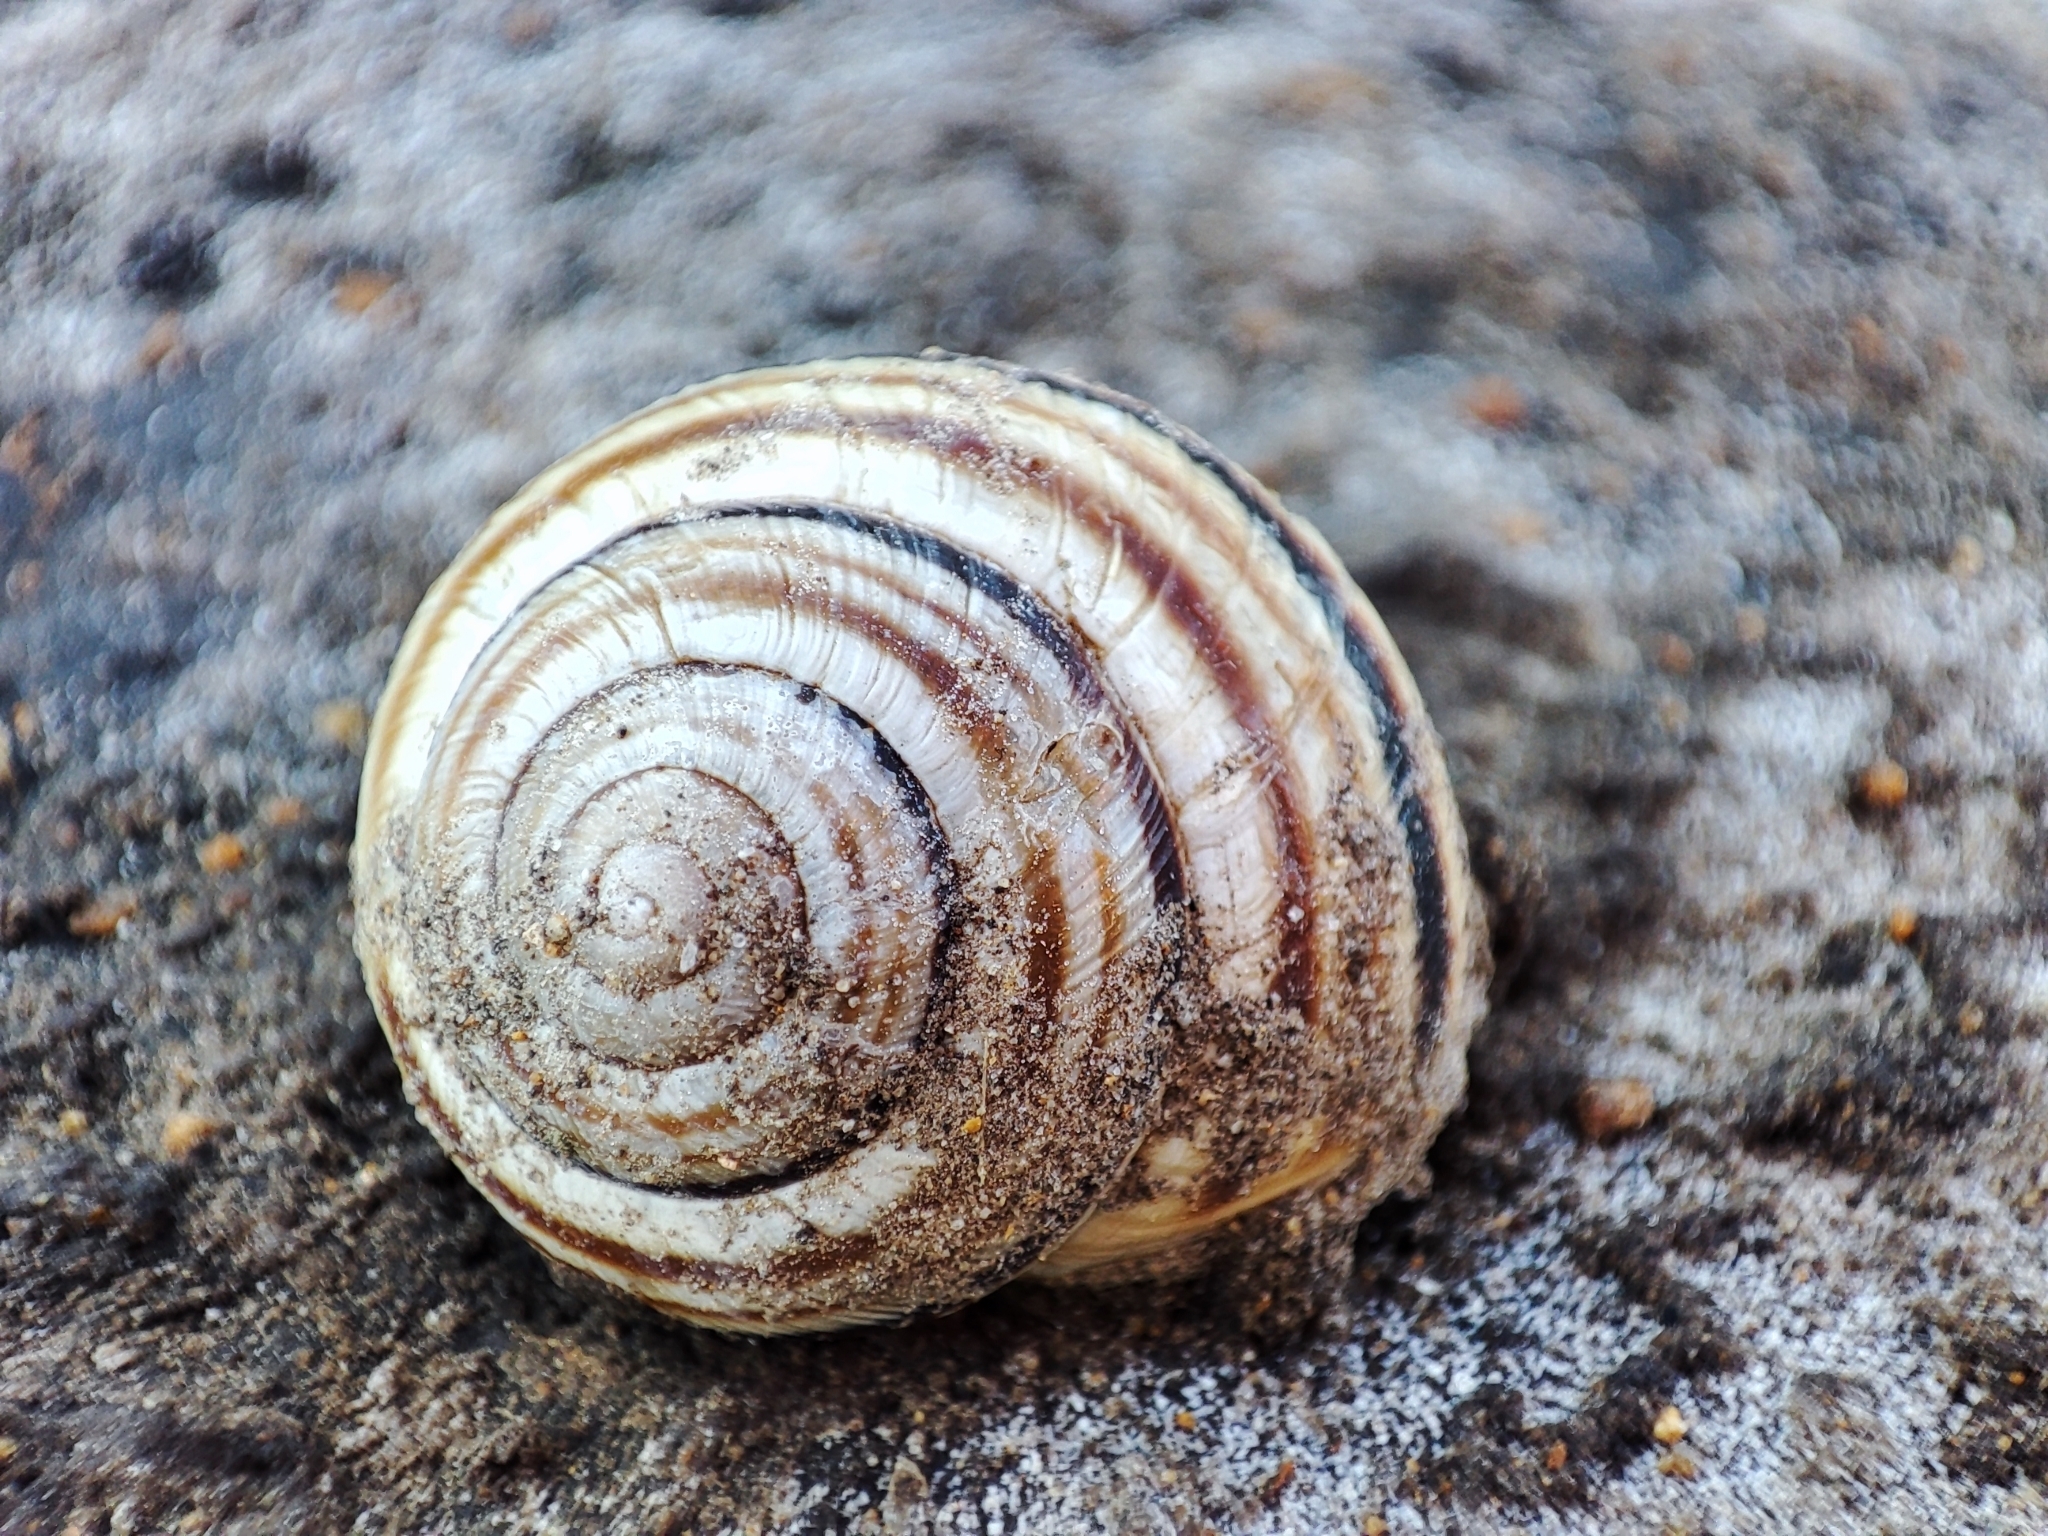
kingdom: Animalia
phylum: Mollusca
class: Gastropoda
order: Stylommatophora
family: Helicidae
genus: Caucasotachea
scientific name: Caucasotachea vindobonensis
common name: European helicid land snail
